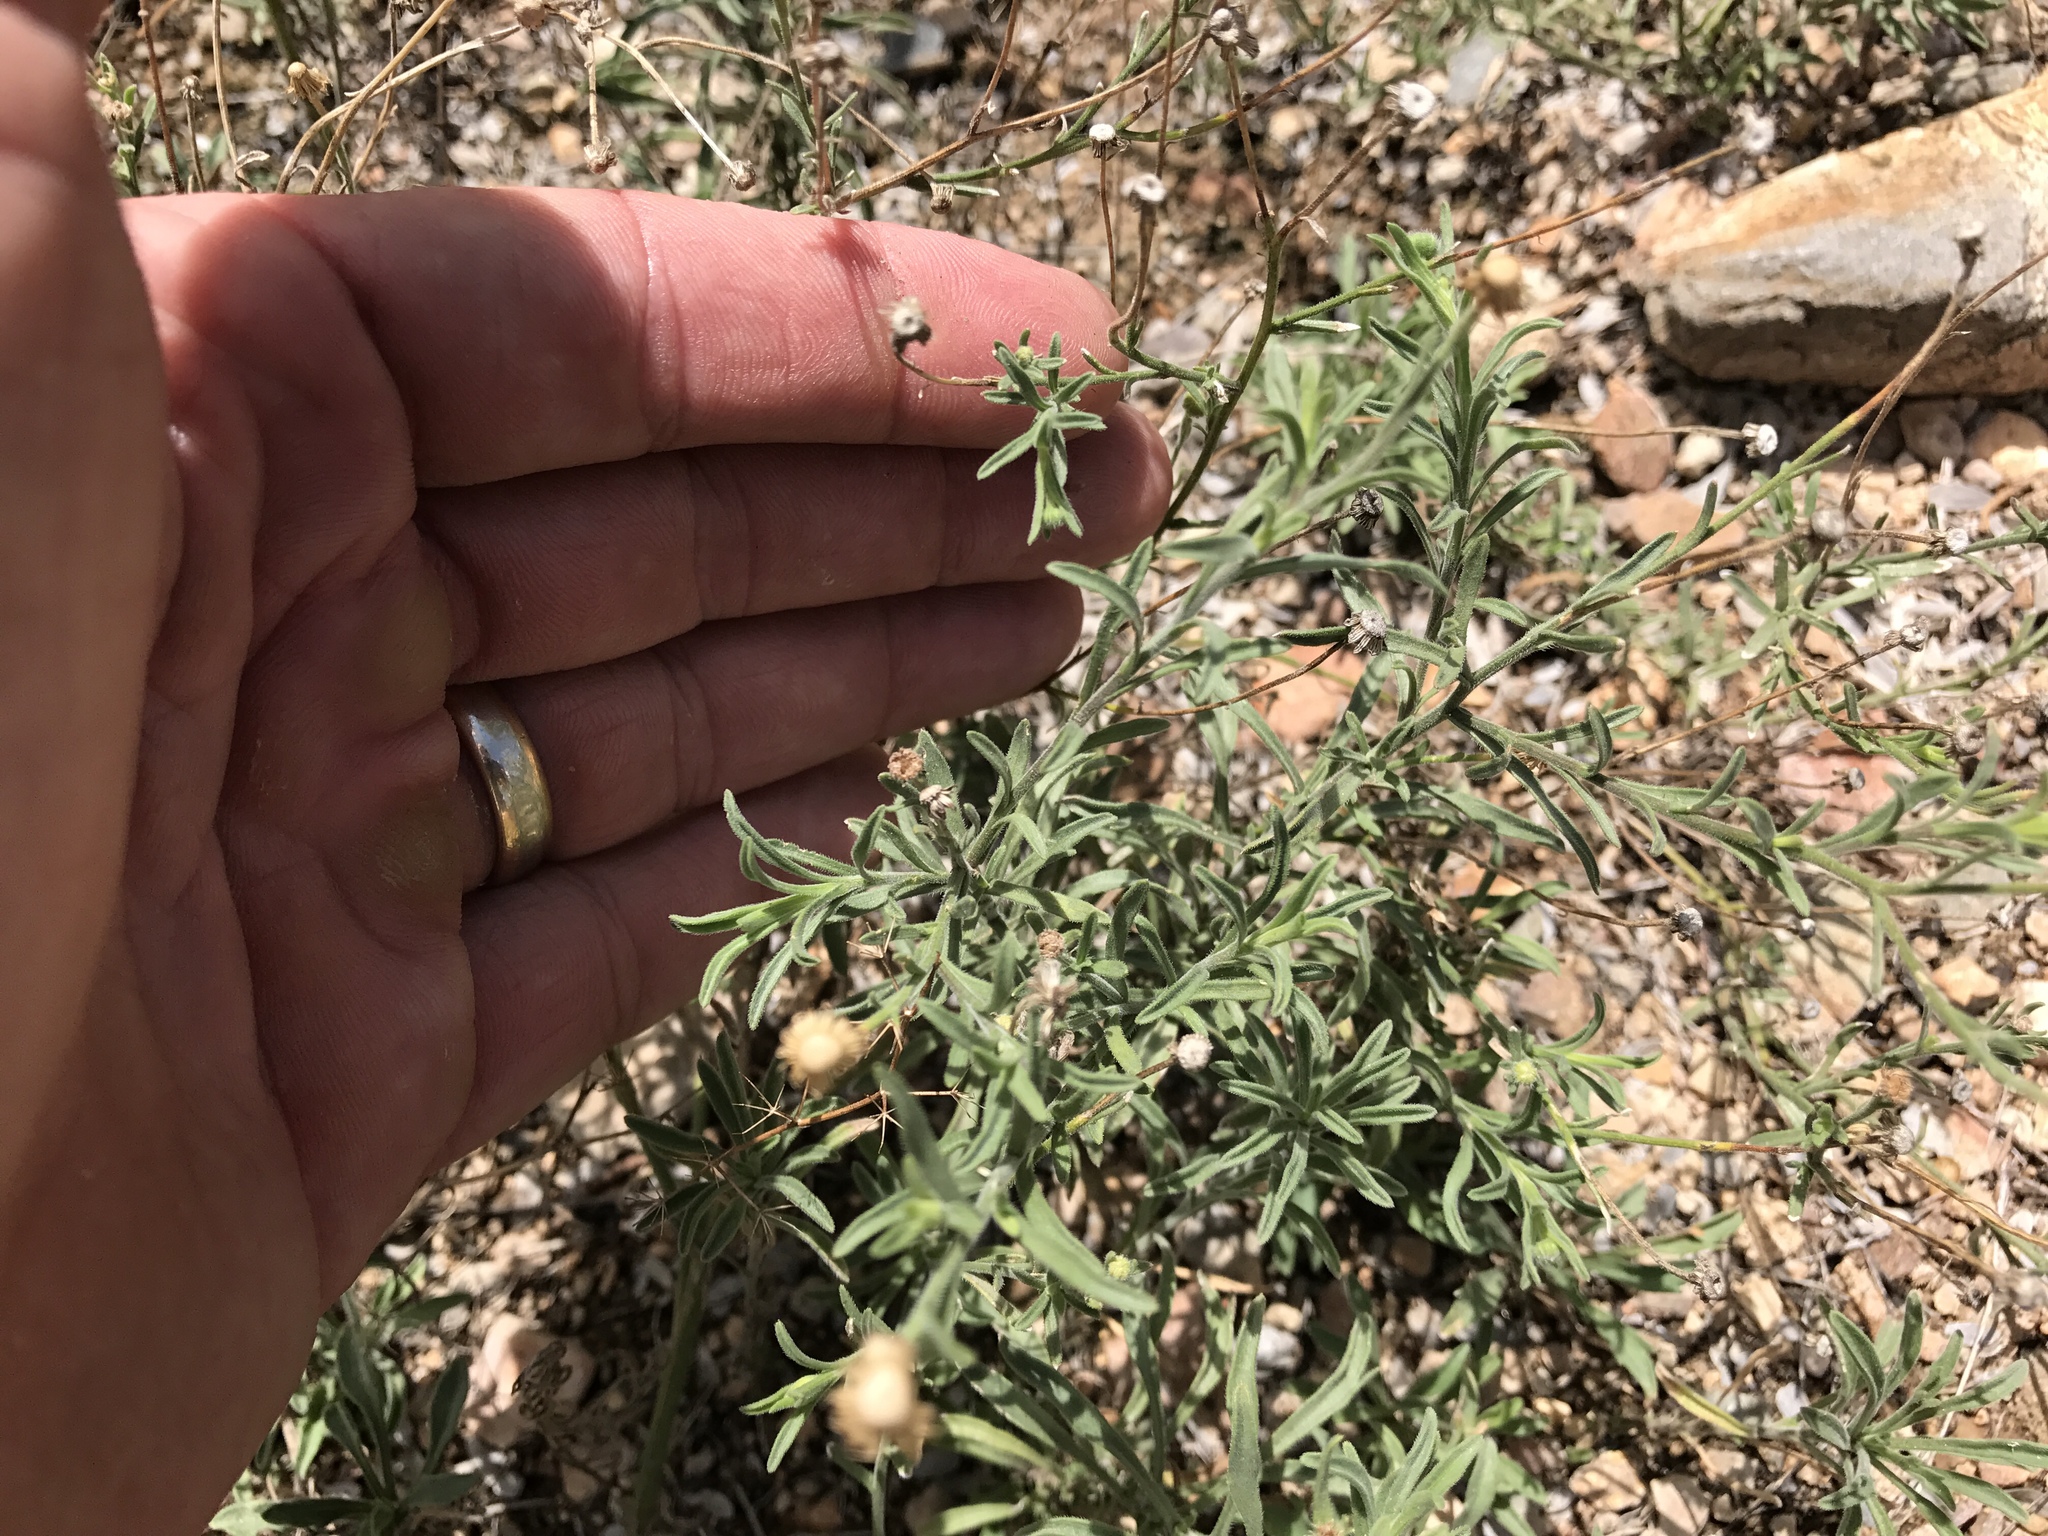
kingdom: Plantae
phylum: Tracheophyta
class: Magnoliopsida
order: Asterales
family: Asteraceae
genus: Melampodium
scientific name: Melampodium leucanthum
